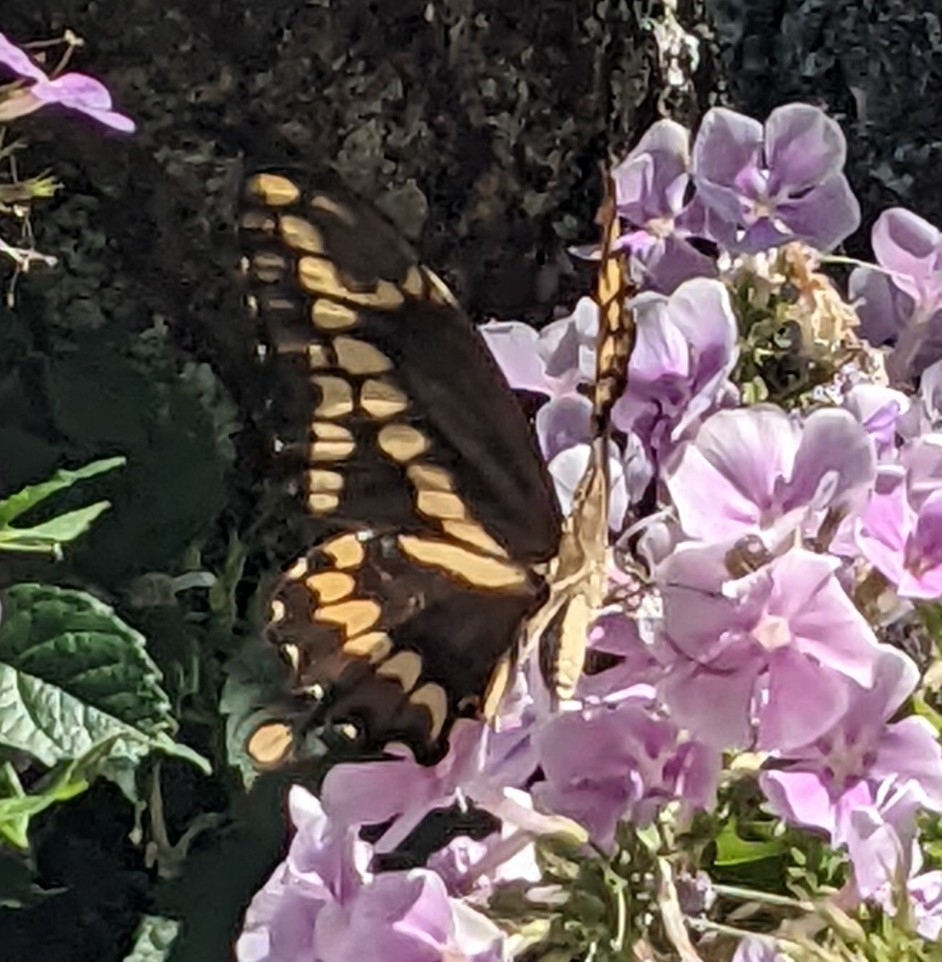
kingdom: Animalia
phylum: Arthropoda
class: Insecta
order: Lepidoptera
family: Papilionidae
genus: Papilio
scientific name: Papilio cresphontes
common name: Giant swallowtail
